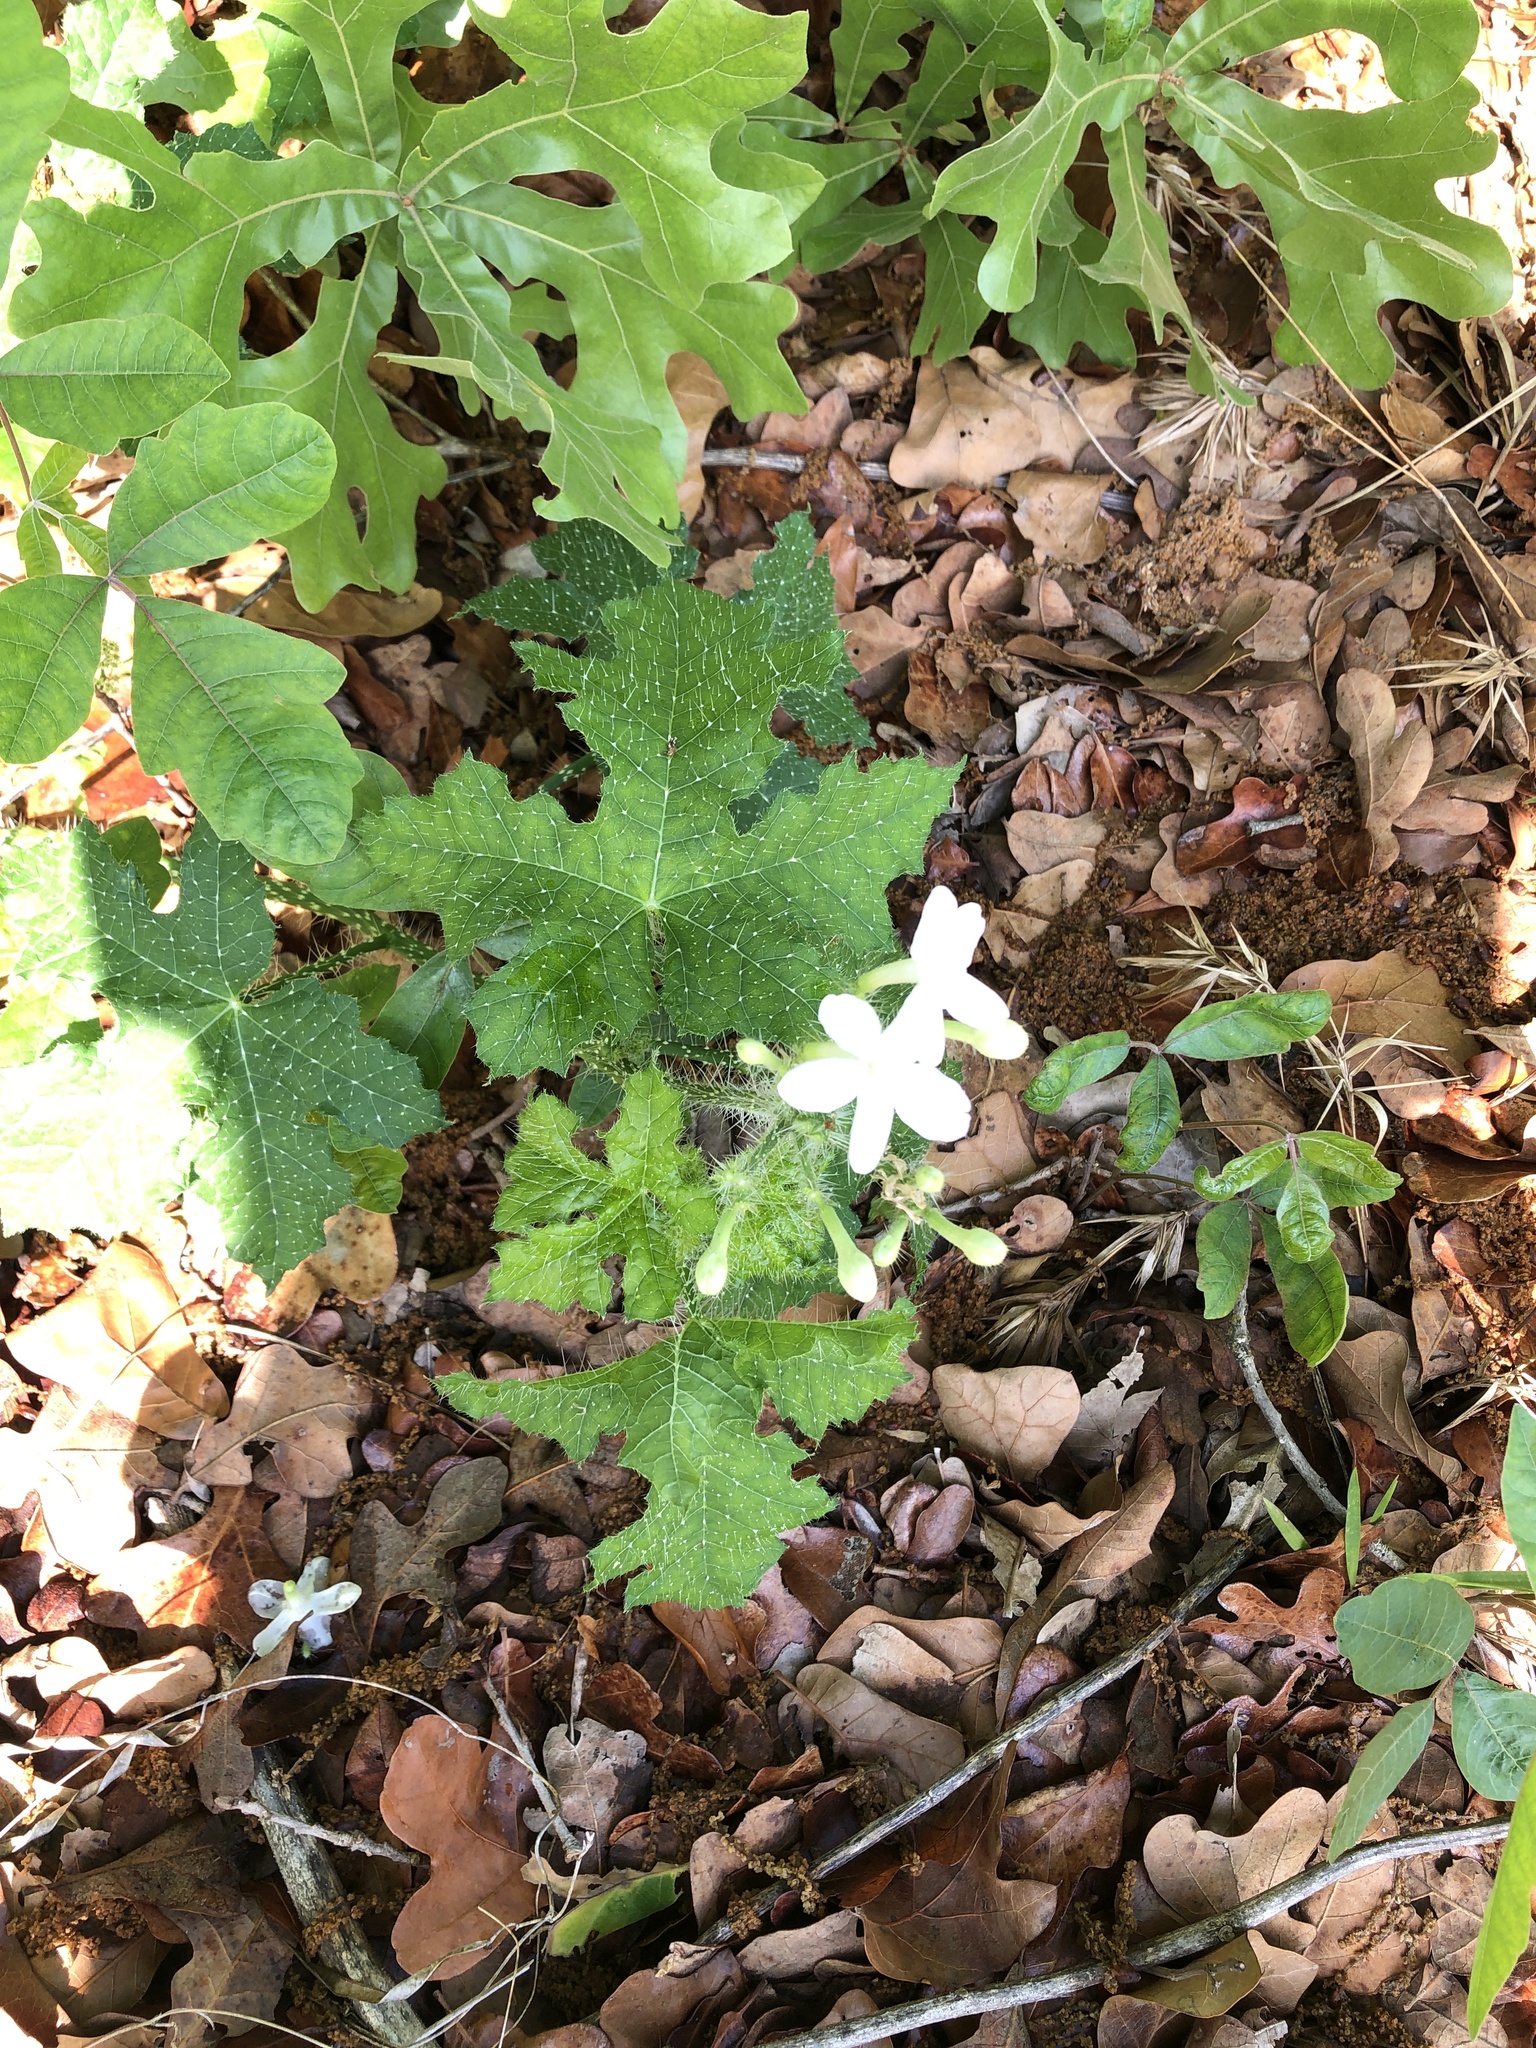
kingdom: Plantae
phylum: Tracheophyta
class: Magnoliopsida
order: Malpighiales
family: Euphorbiaceae
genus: Cnidoscolus
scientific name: Cnidoscolus texanus
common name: Texas bull-nettle
